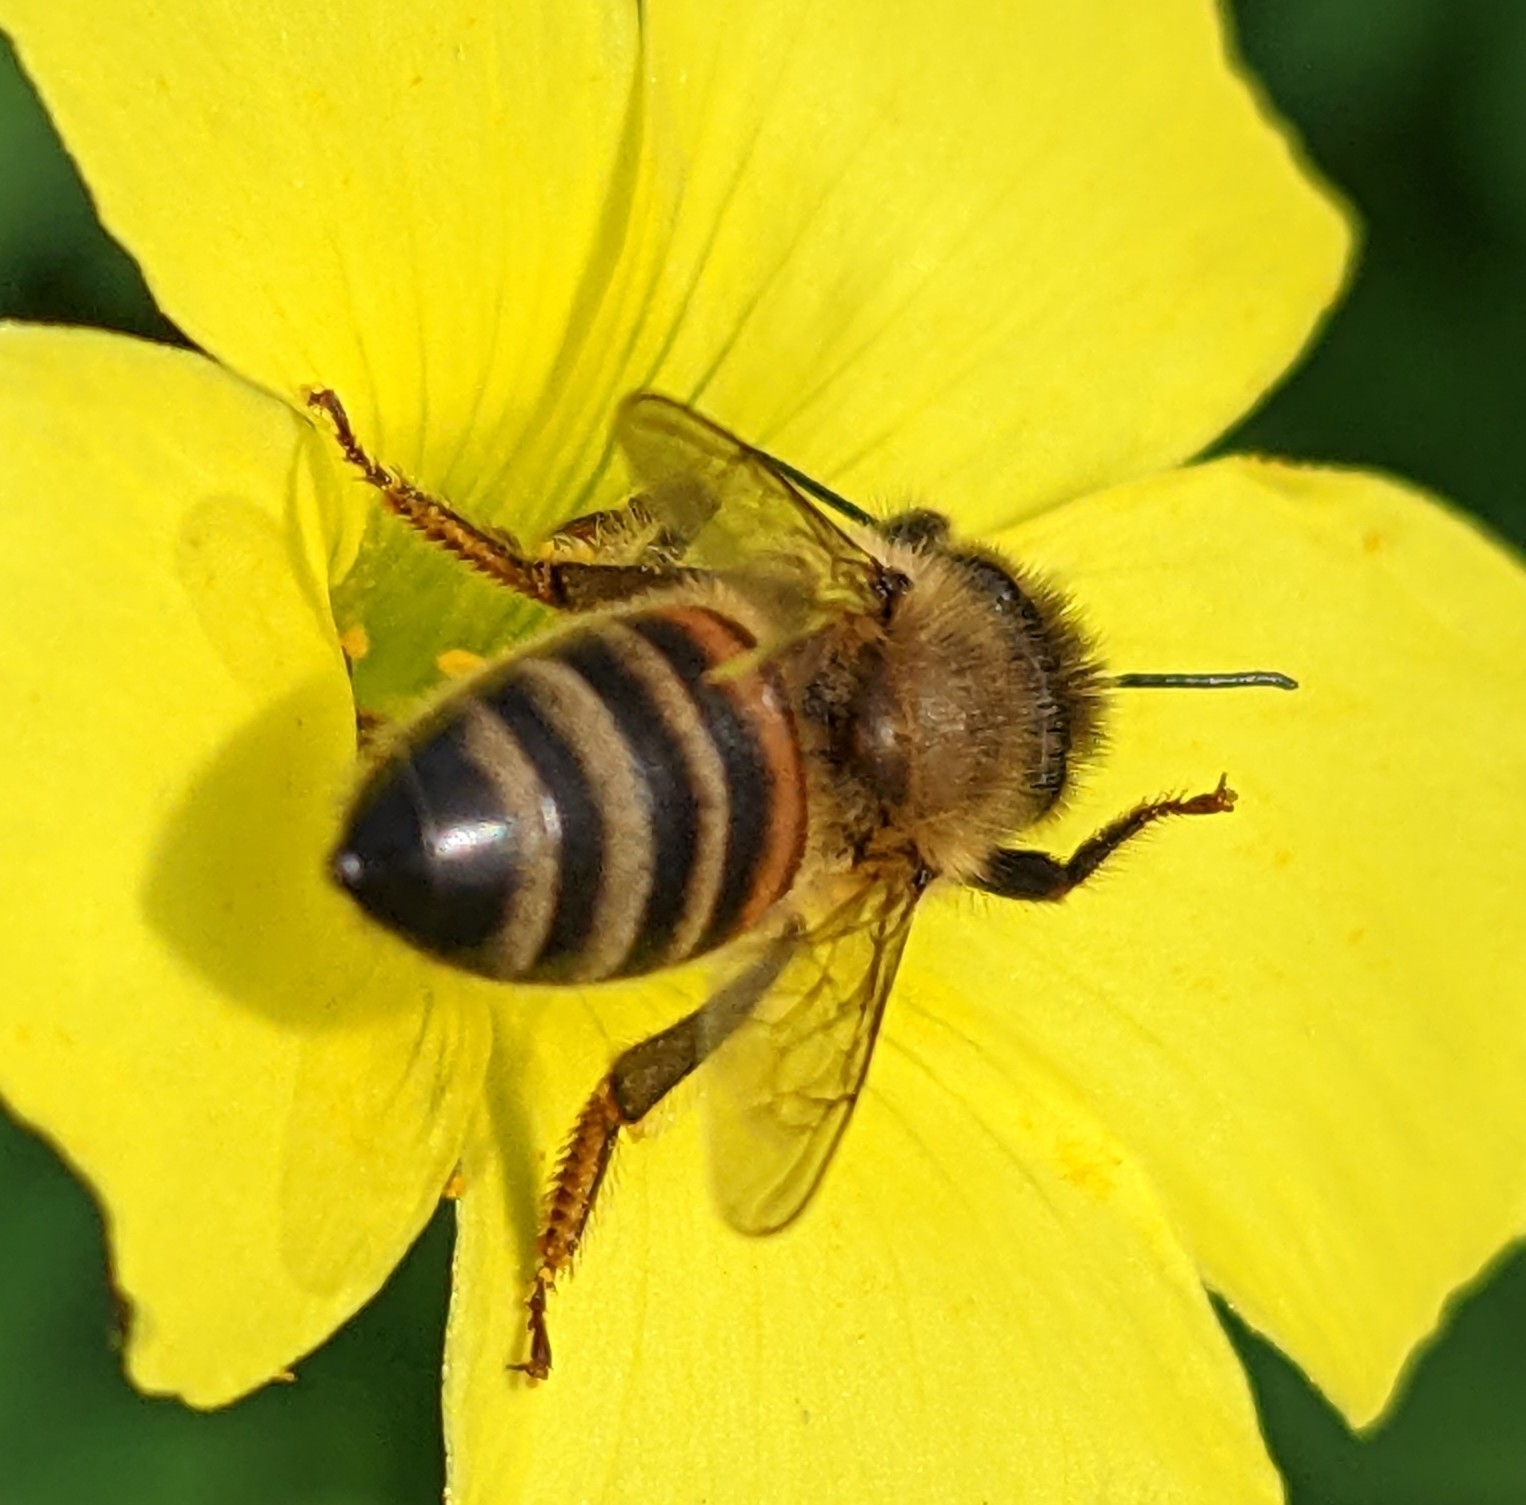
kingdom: Animalia
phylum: Arthropoda
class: Insecta
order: Hymenoptera
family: Apidae
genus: Apis
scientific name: Apis mellifera
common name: Honey bee
